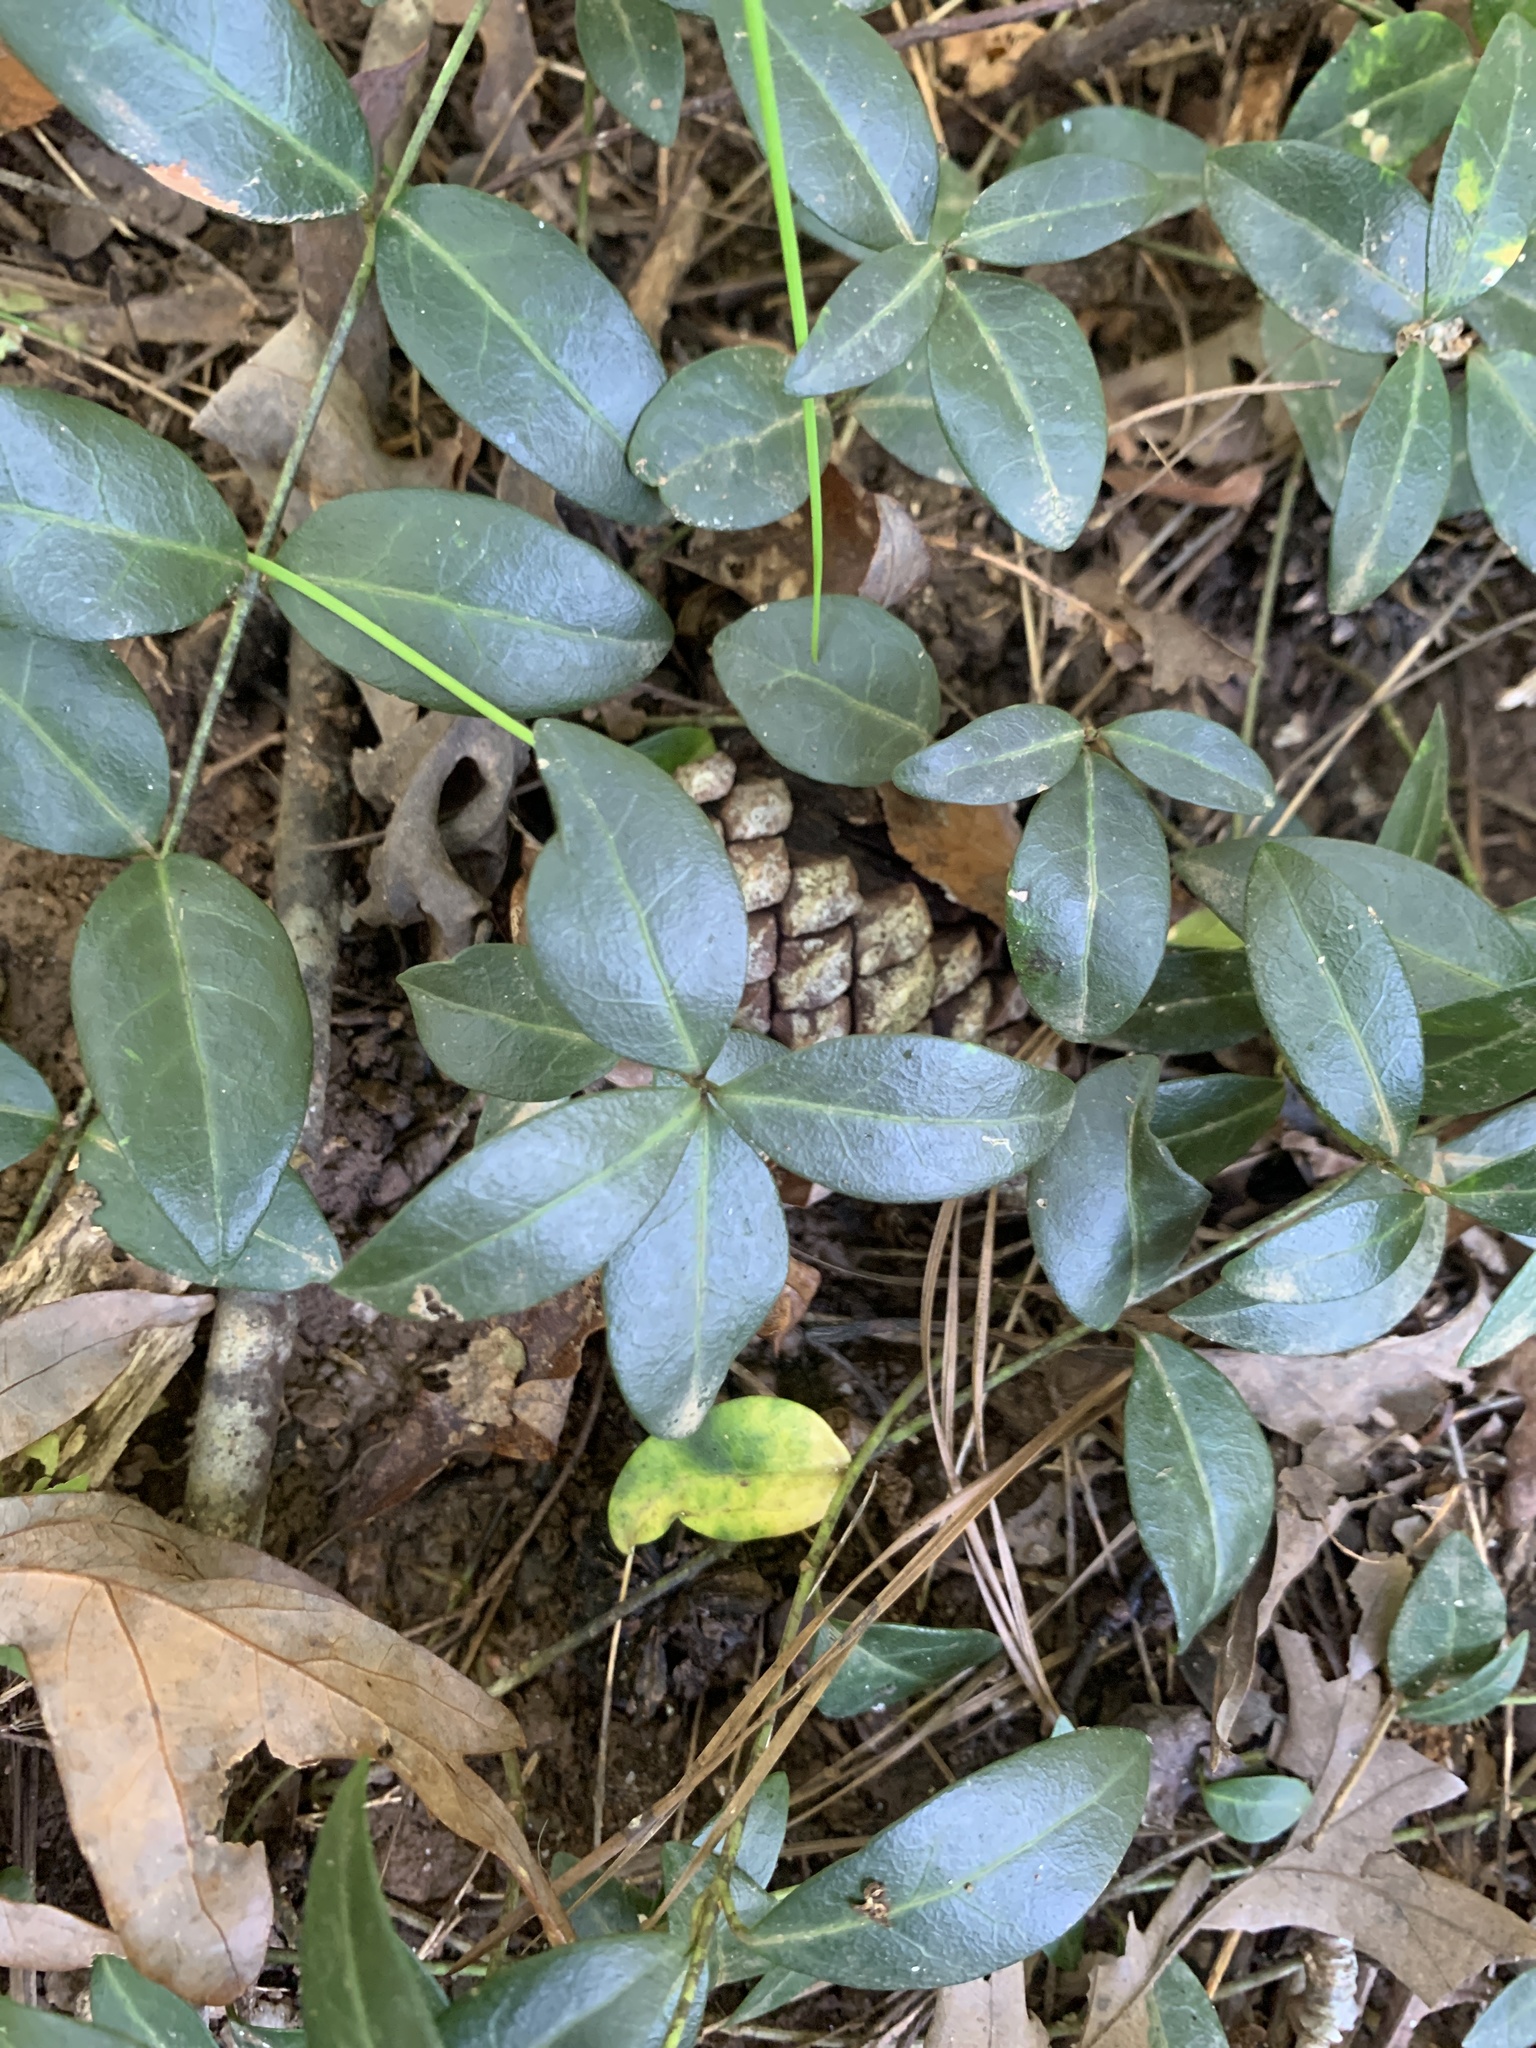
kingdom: Plantae
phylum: Tracheophyta
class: Magnoliopsida
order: Gentianales
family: Apocynaceae
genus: Vinca
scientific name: Vinca minor
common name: Lesser periwinkle
